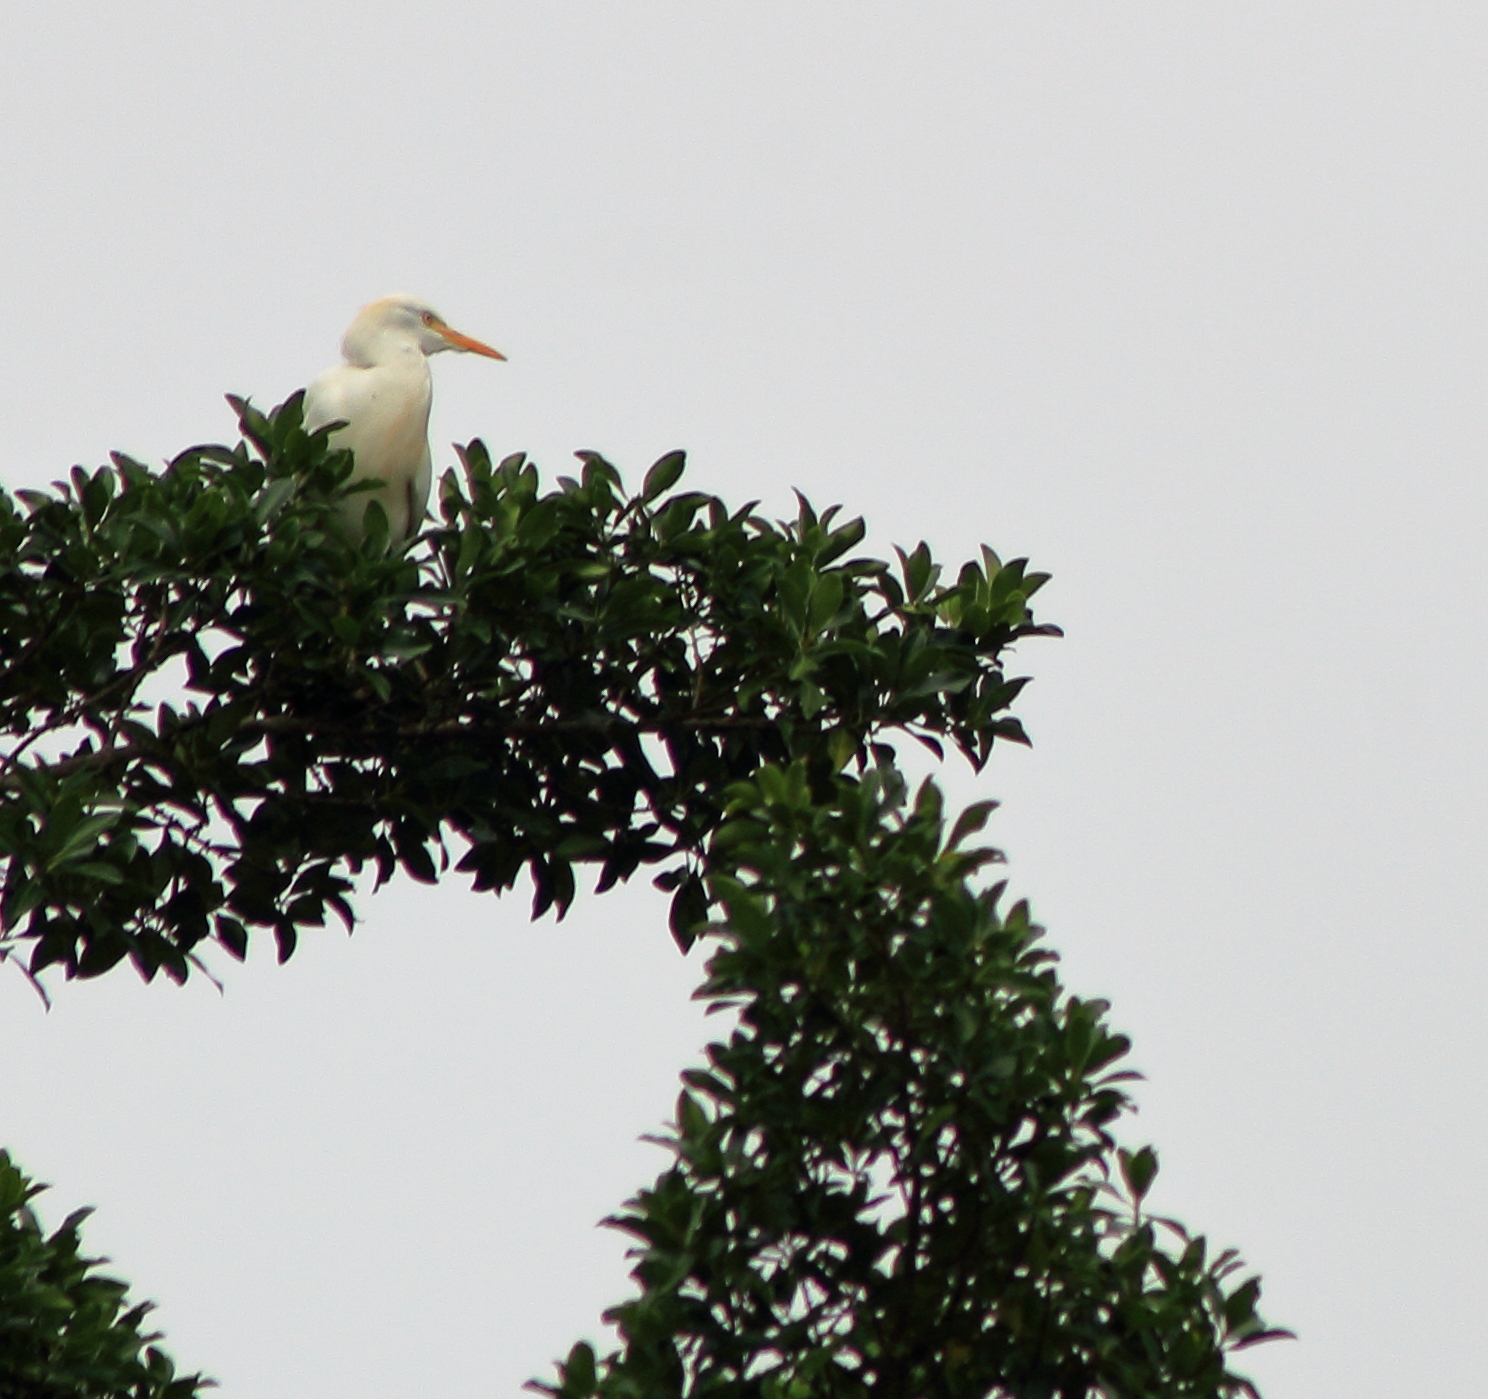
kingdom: Animalia
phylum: Chordata
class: Aves
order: Pelecaniformes
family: Ardeidae
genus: Bubulcus
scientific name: Bubulcus ibis
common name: Cattle egret
